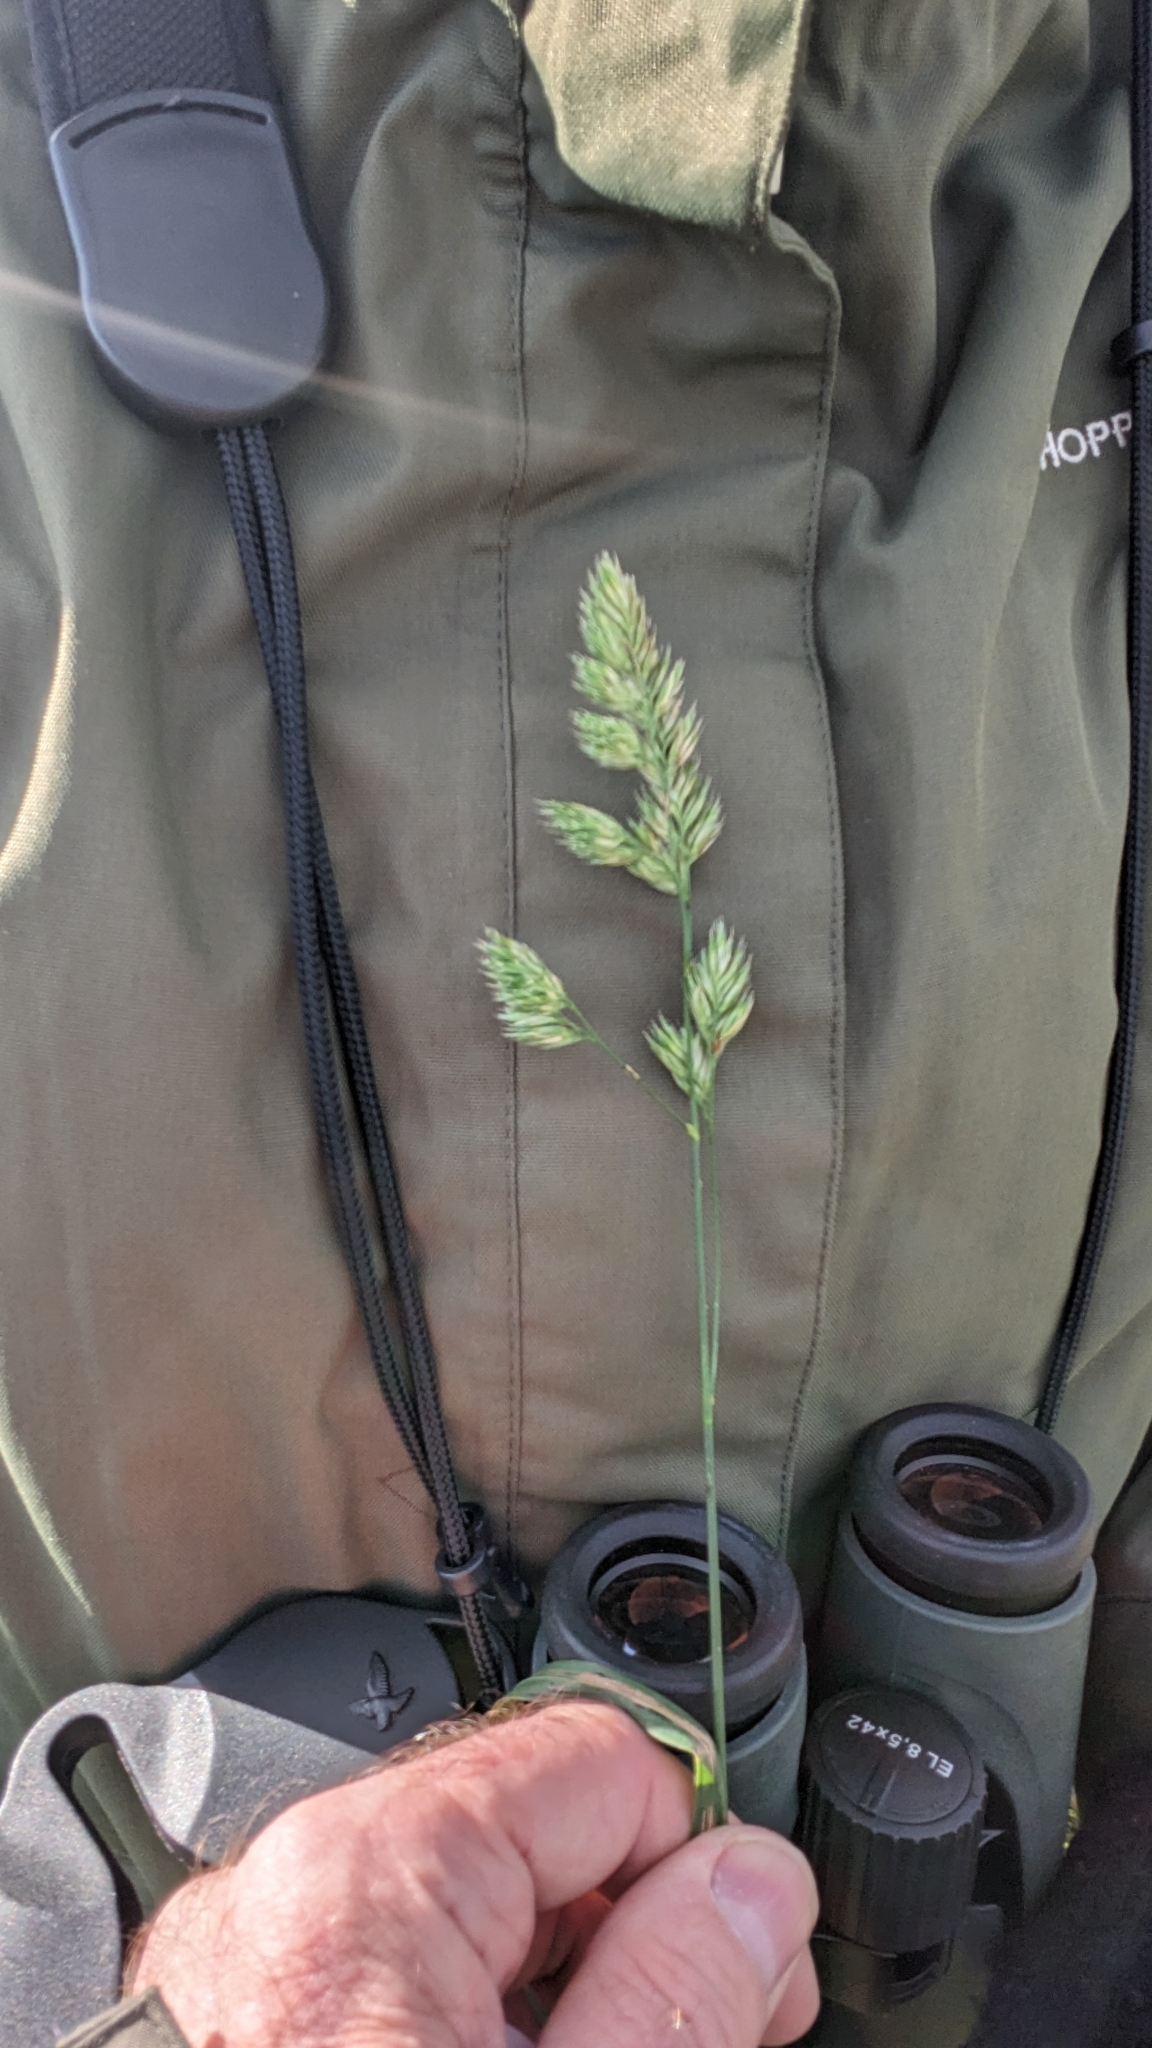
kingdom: Plantae
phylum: Tracheophyta
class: Liliopsida
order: Poales
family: Poaceae
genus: Dactylis
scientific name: Dactylis glomerata
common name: Orchardgrass
